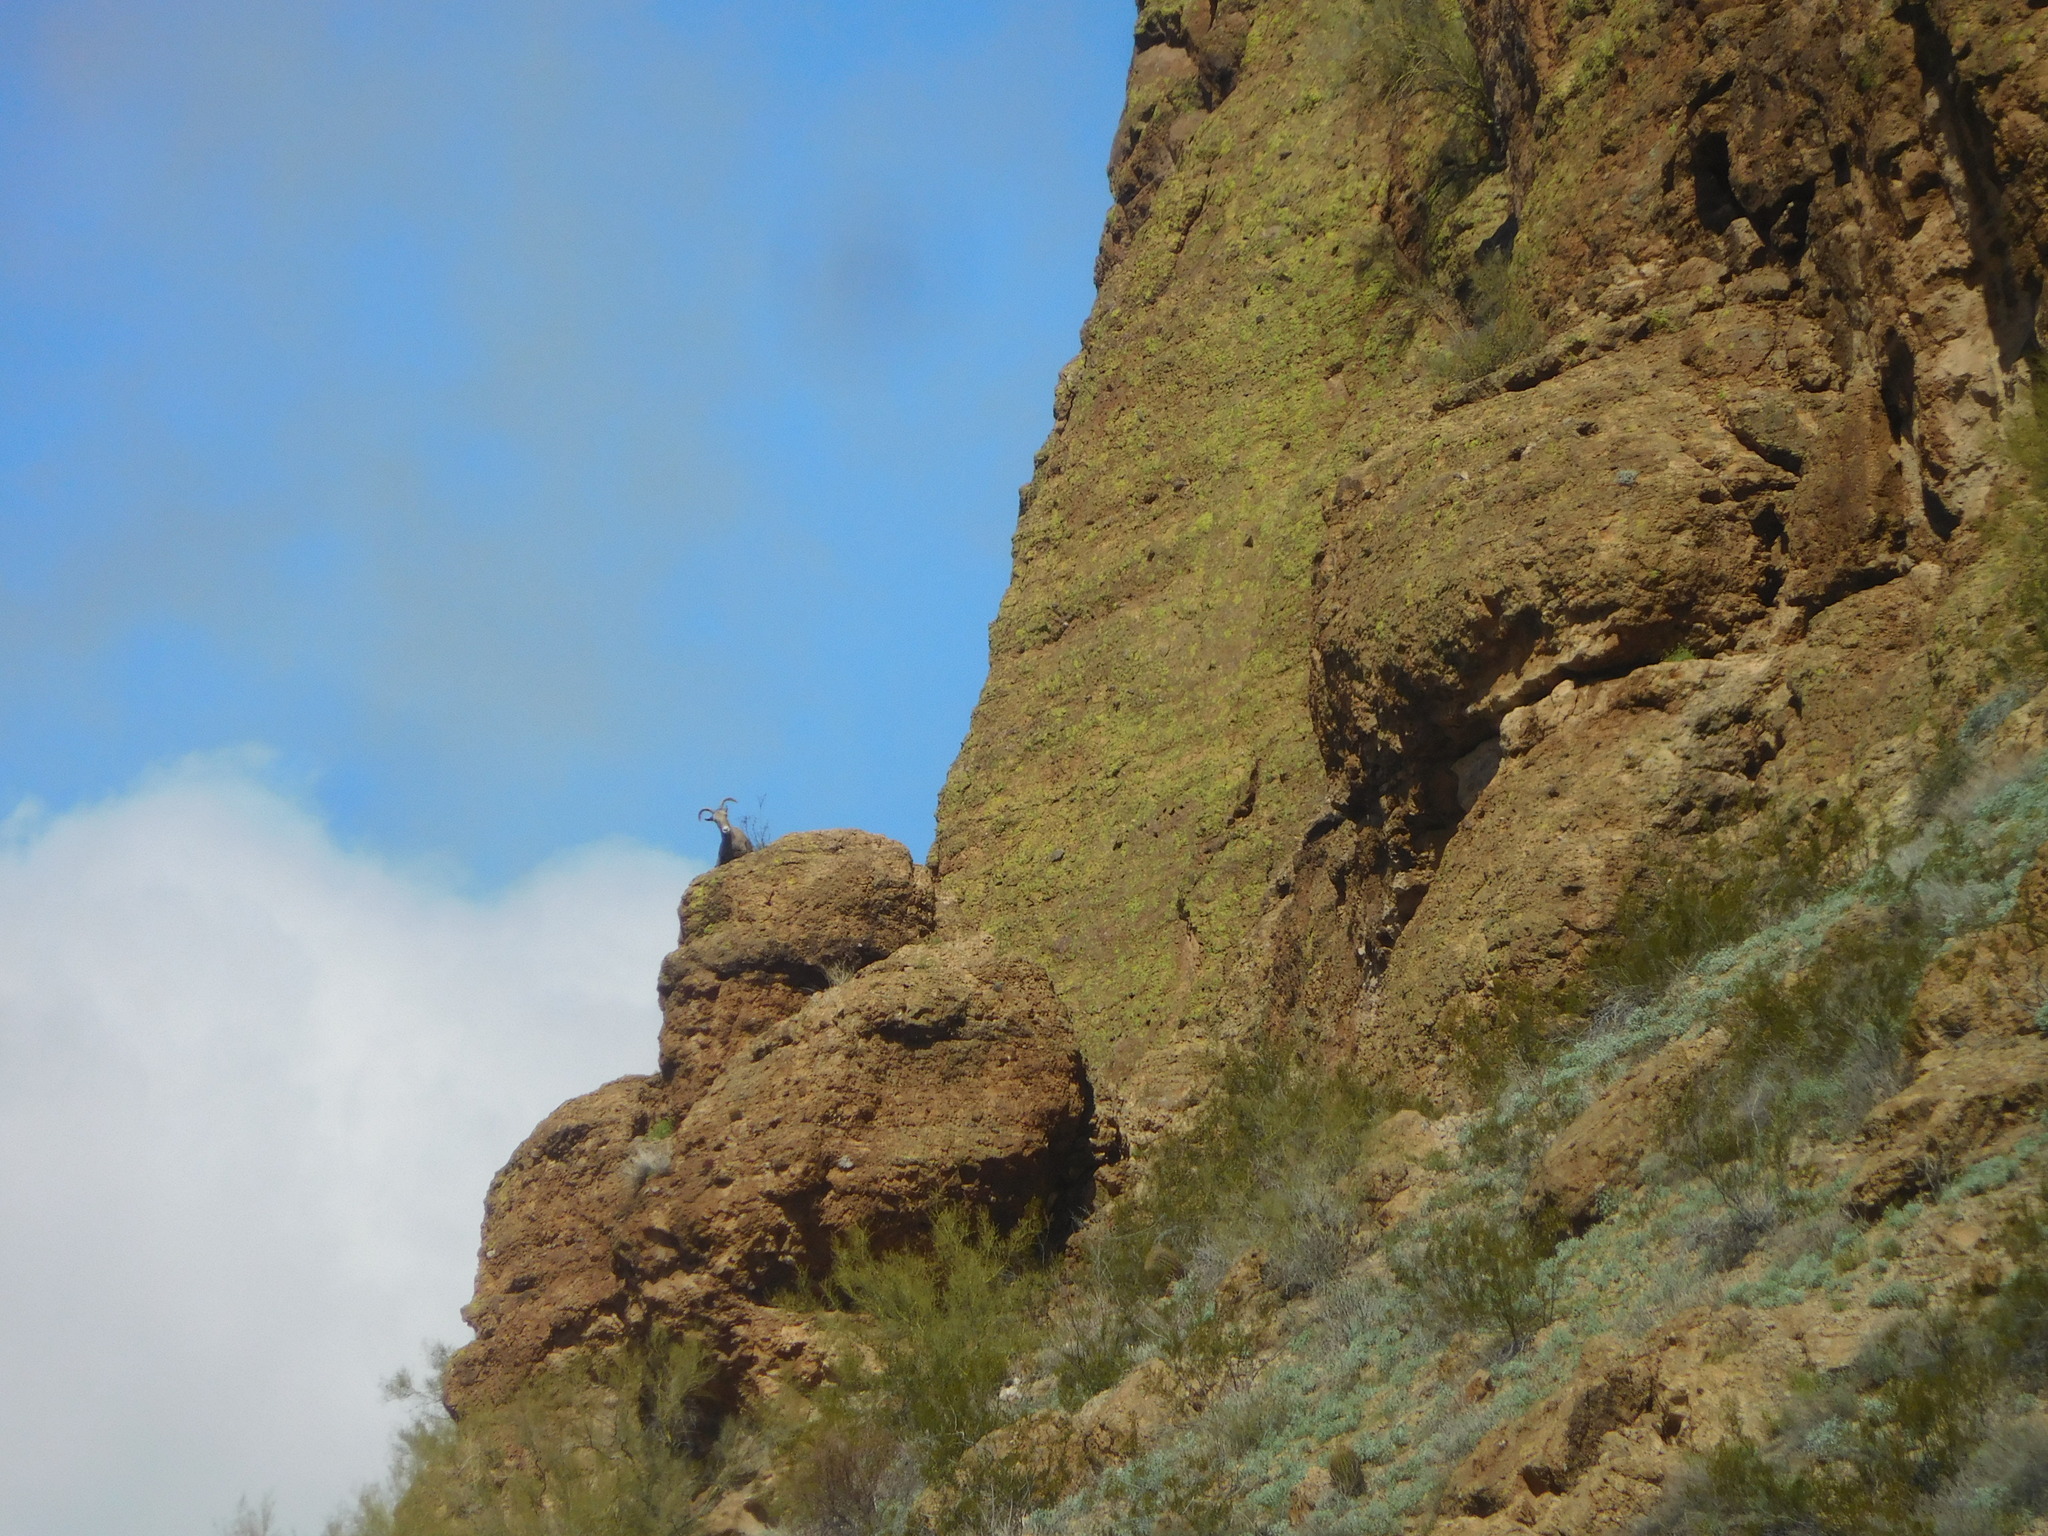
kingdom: Animalia
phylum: Chordata
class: Mammalia
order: Artiodactyla
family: Bovidae
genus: Ovis
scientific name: Ovis canadensis
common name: Bighorn sheep
